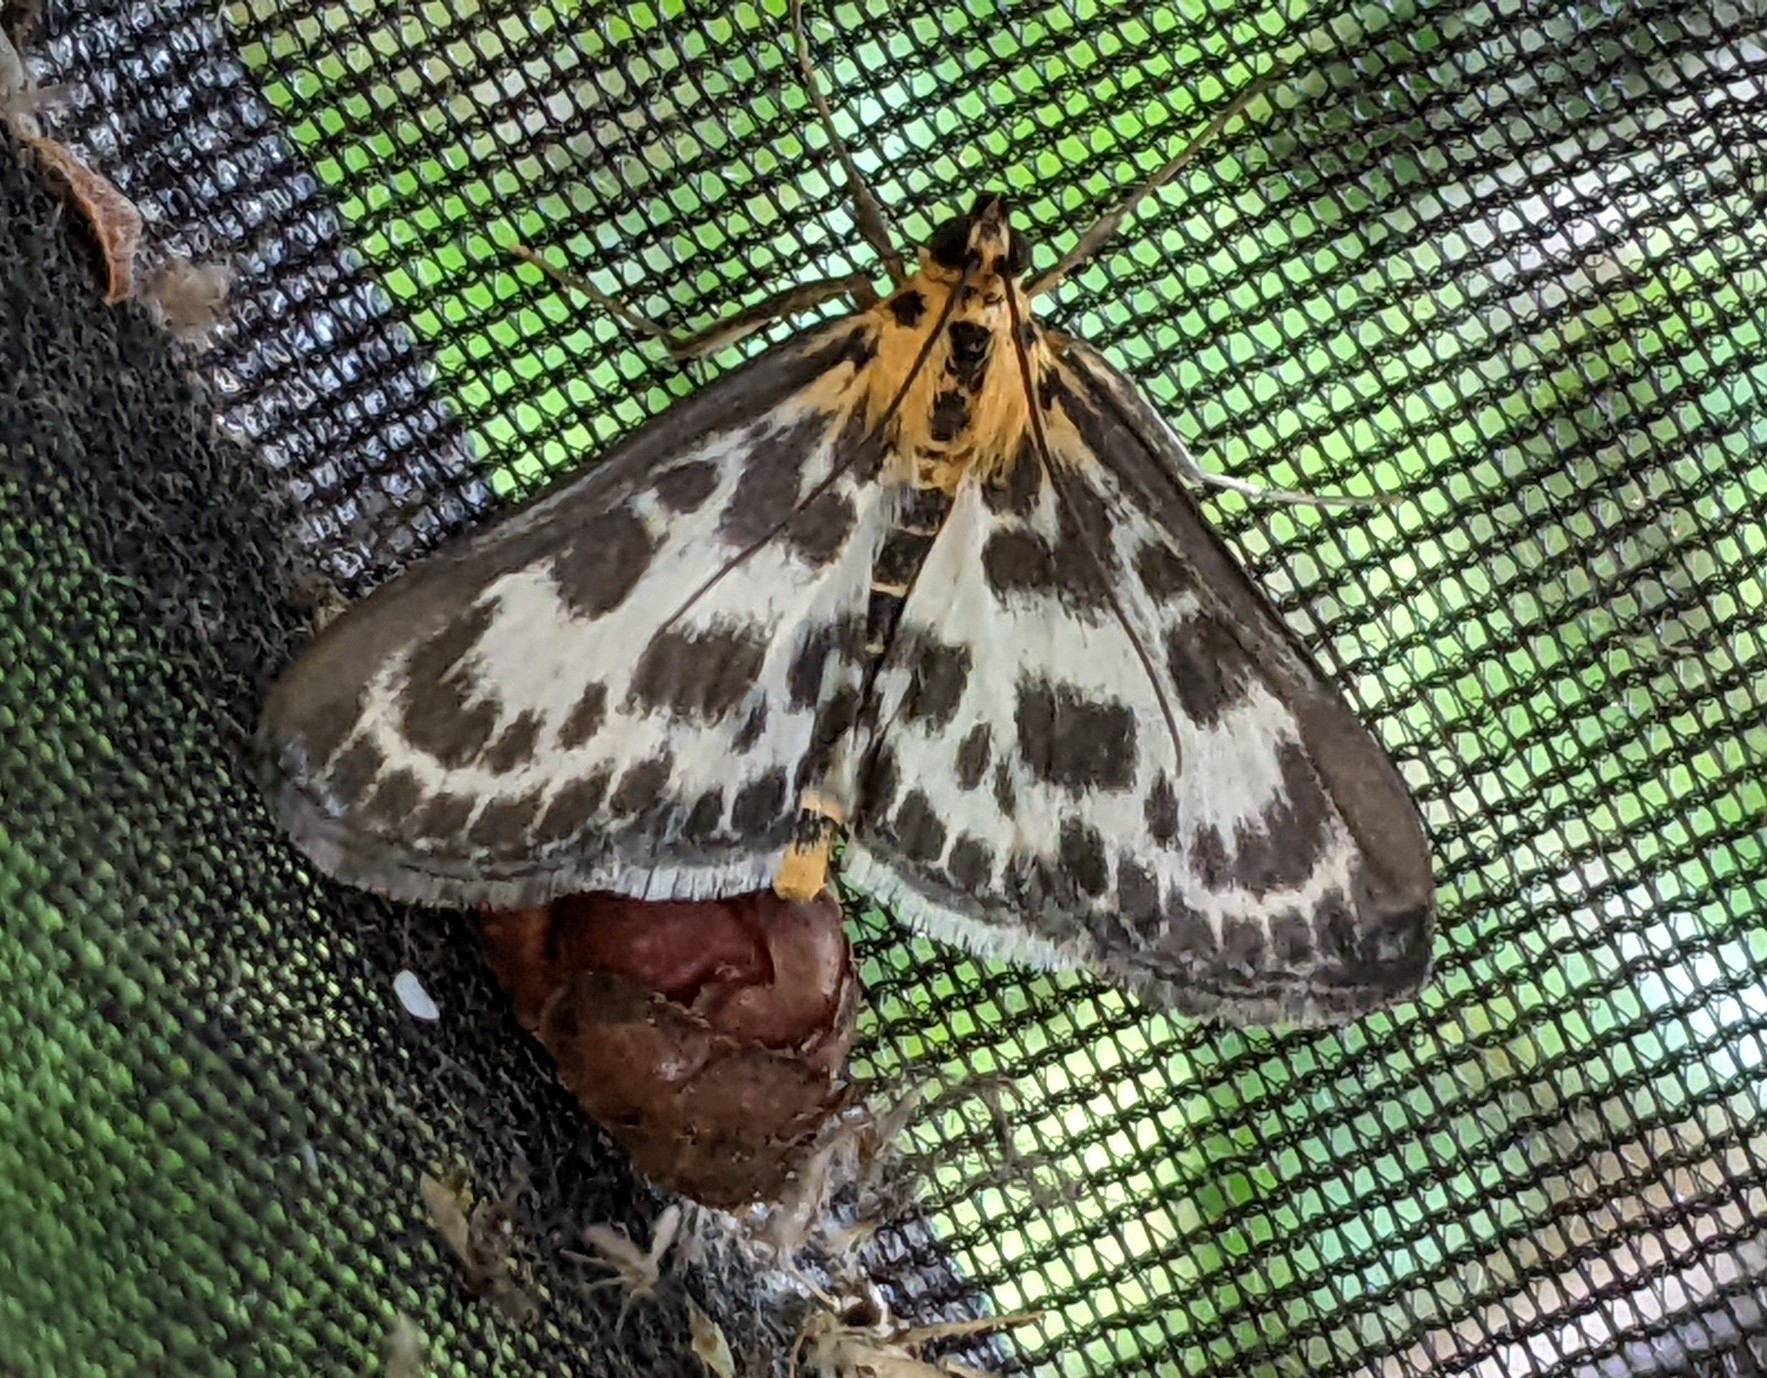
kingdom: Animalia
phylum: Arthropoda
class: Insecta
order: Lepidoptera
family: Crambidae
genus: Anania
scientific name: Anania hortulata
